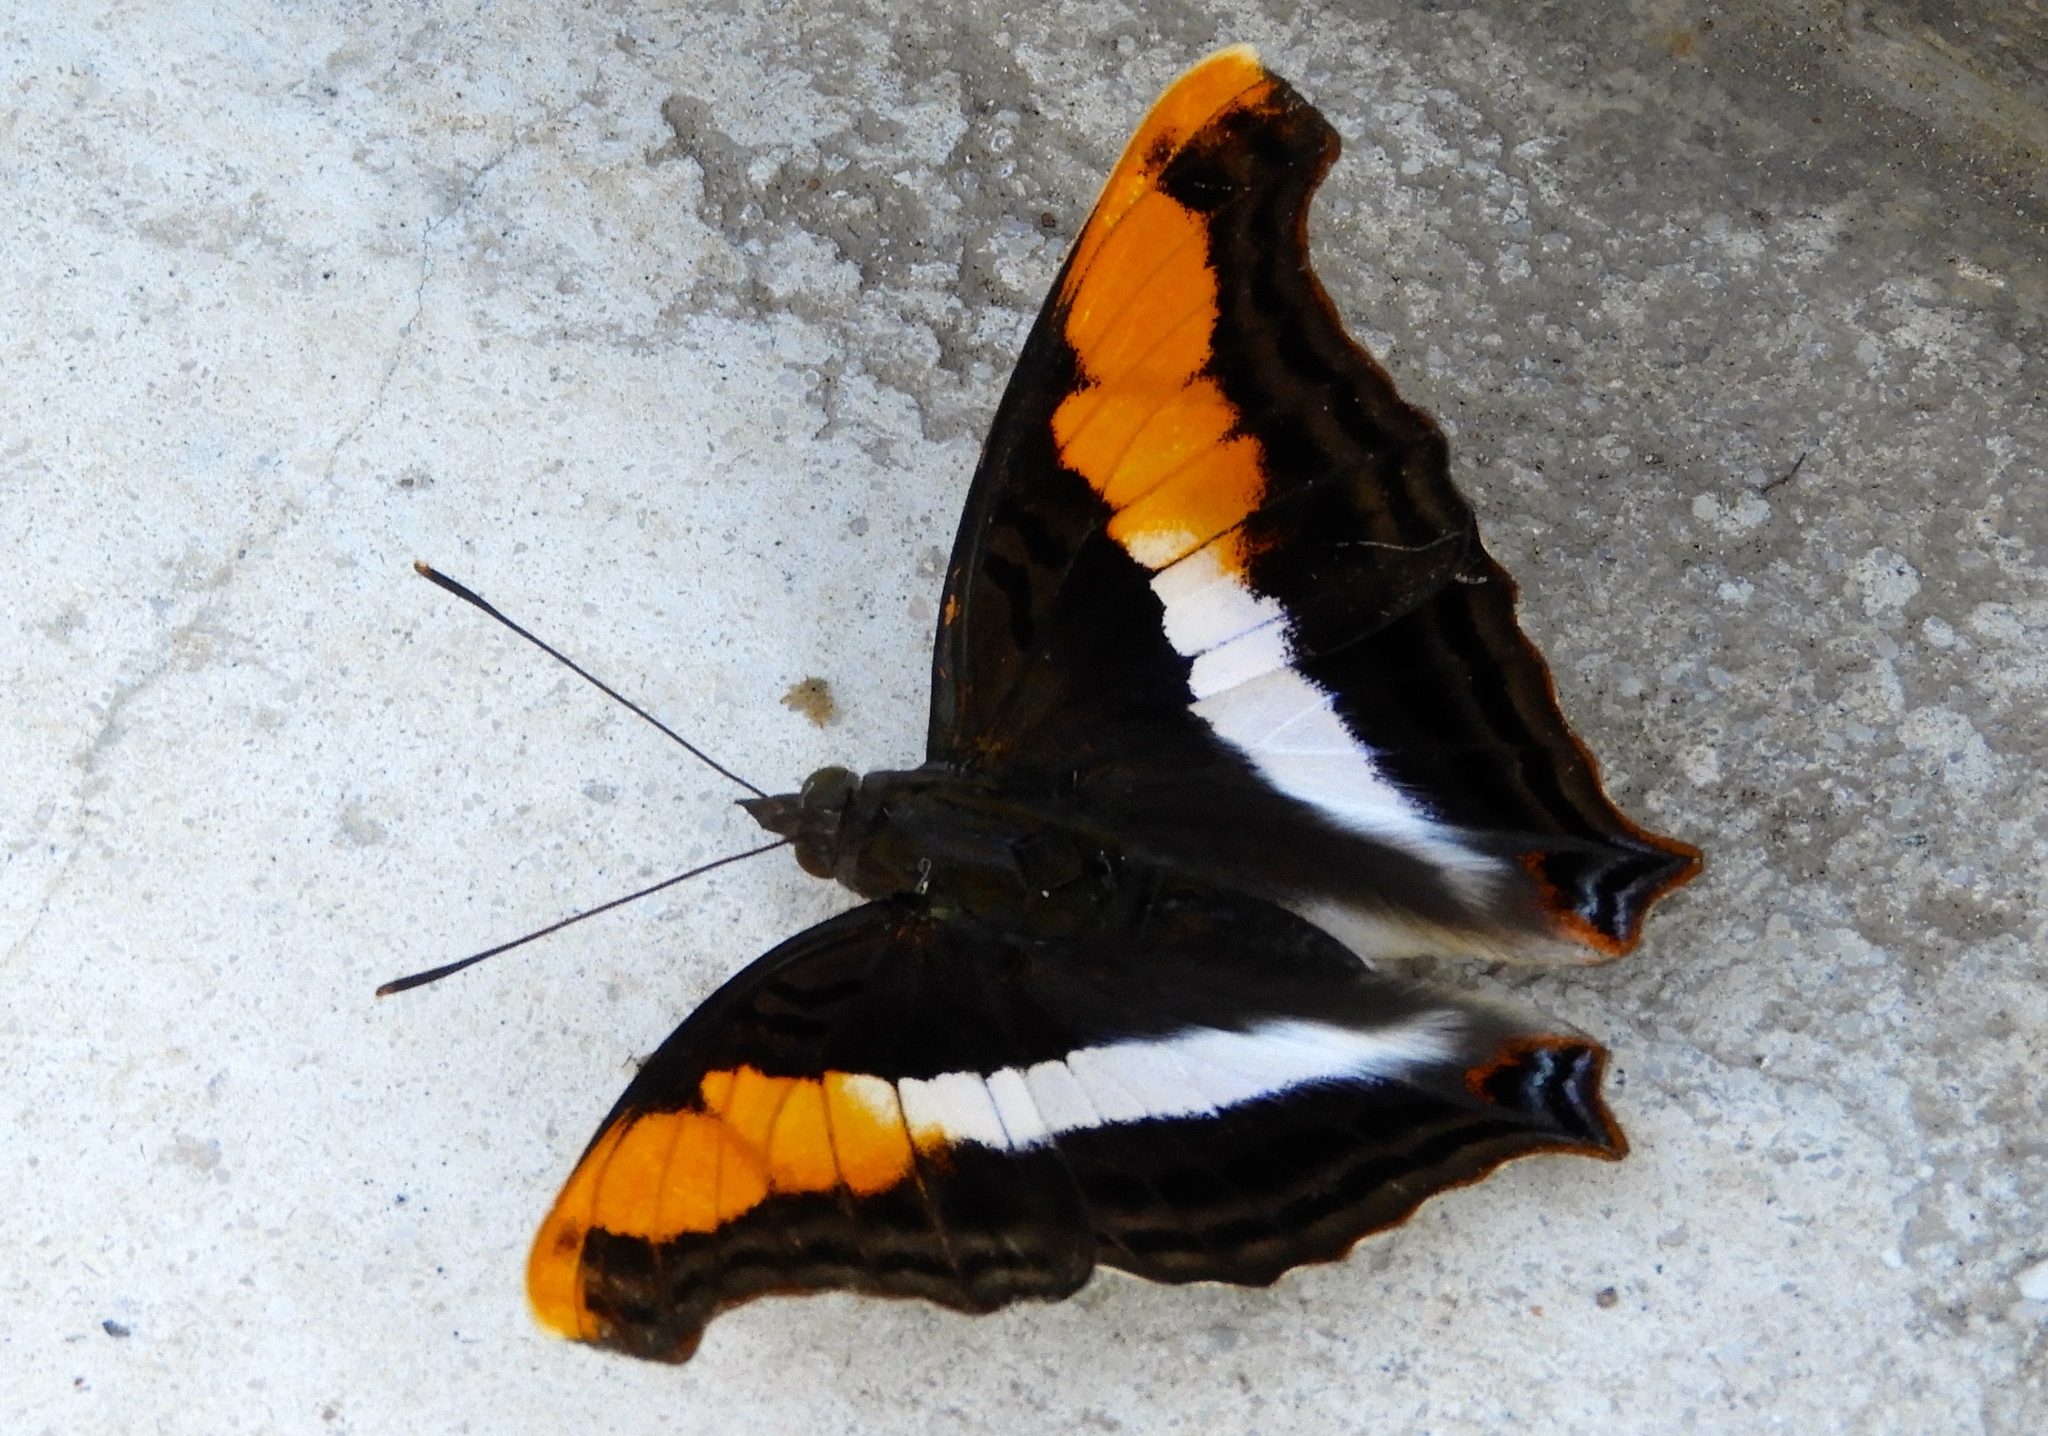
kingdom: Animalia
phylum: Arthropoda
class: Insecta
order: Lepidoptera
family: Nymphalidae
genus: Doxocopa
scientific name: Doxocopa laure
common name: Silver emperor
